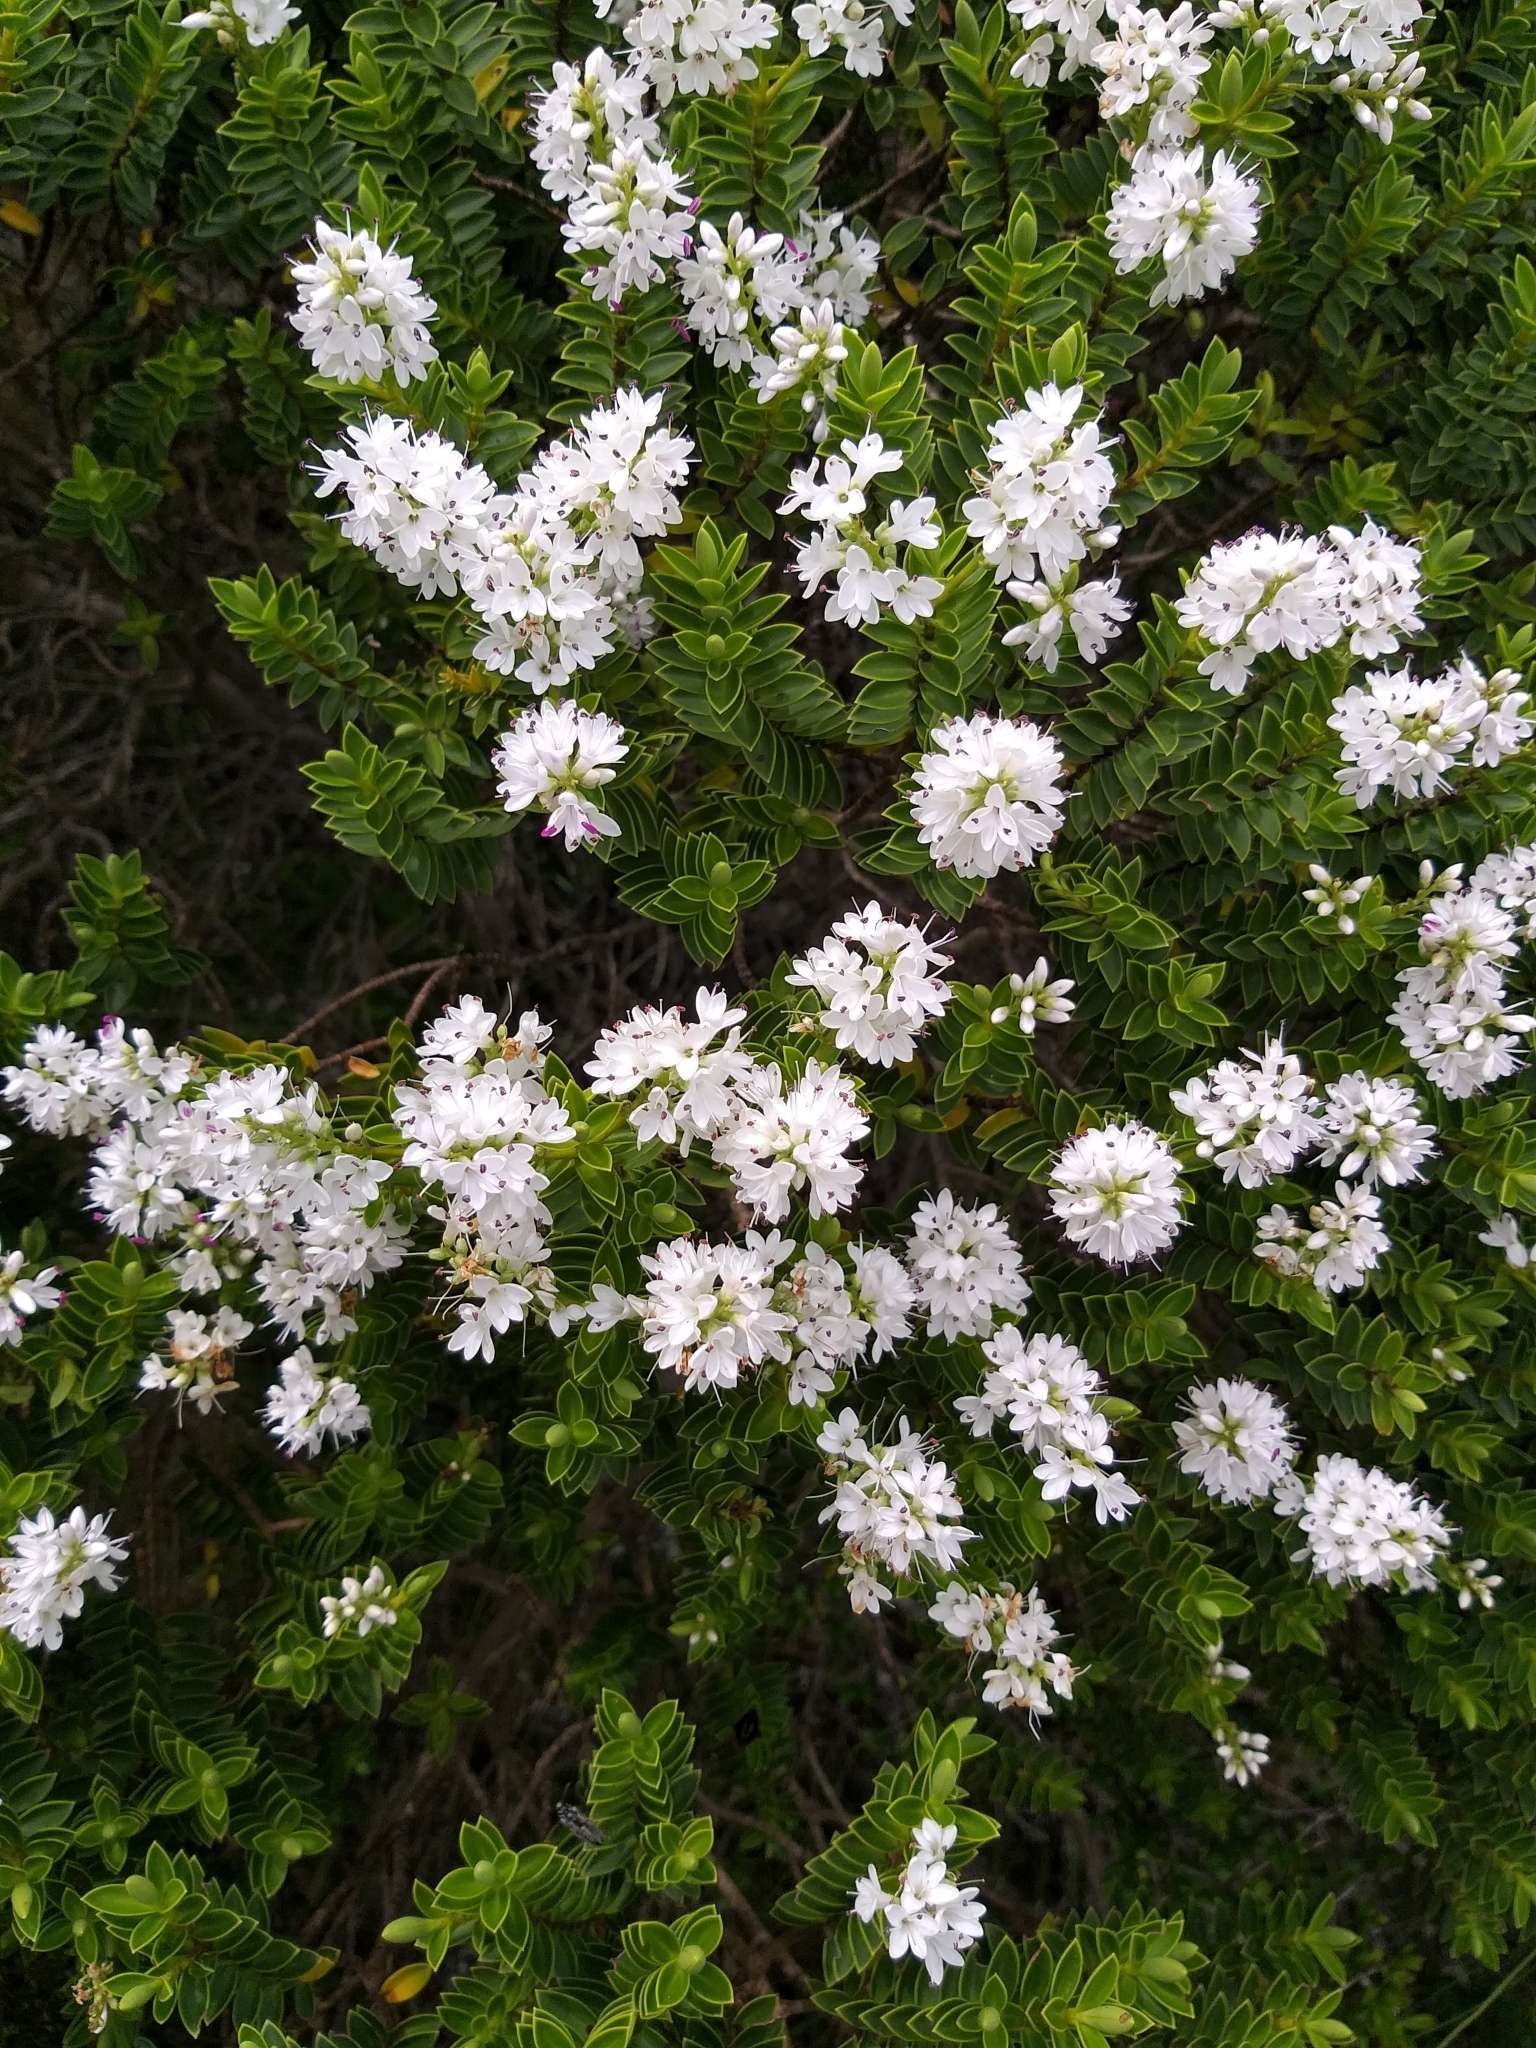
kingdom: Plantae
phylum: Tracheophyta
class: Magnoliopsida
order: Lamiales
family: Plantaginaceae
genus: Veronica
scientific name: Veronica odora
